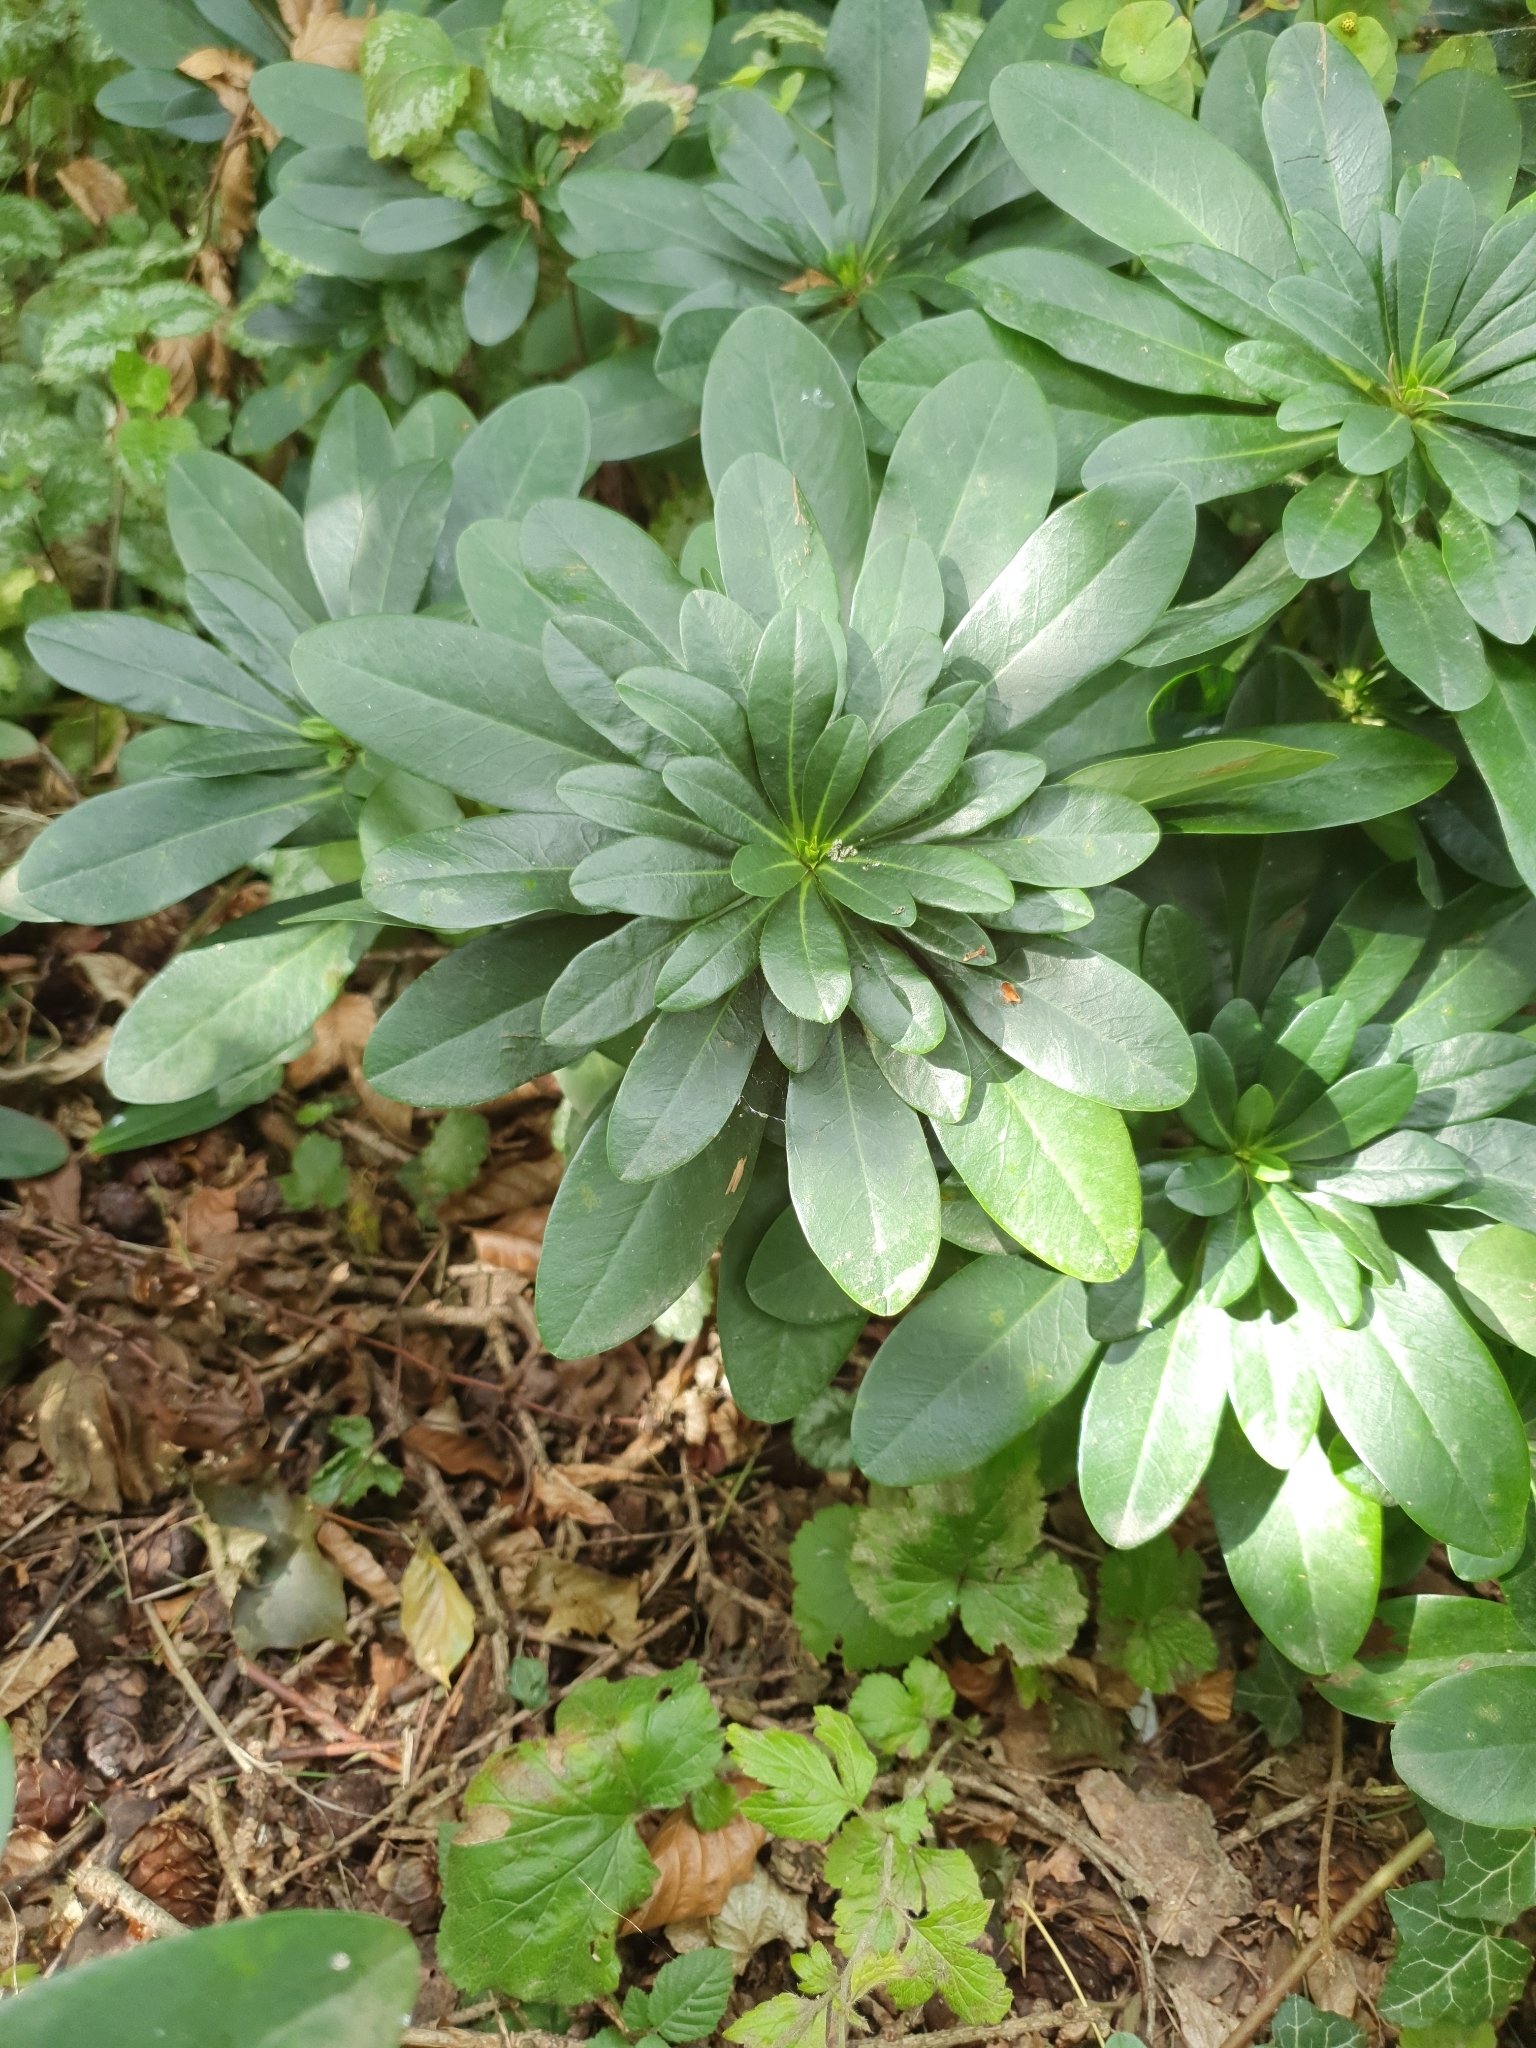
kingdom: Plantae
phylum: Tracheophyta
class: Magnoliopsida
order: Malpighiales
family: Euphorbiaceae
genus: Euphorbia
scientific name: Euphorbia amygdaloides
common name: Wood spurge
